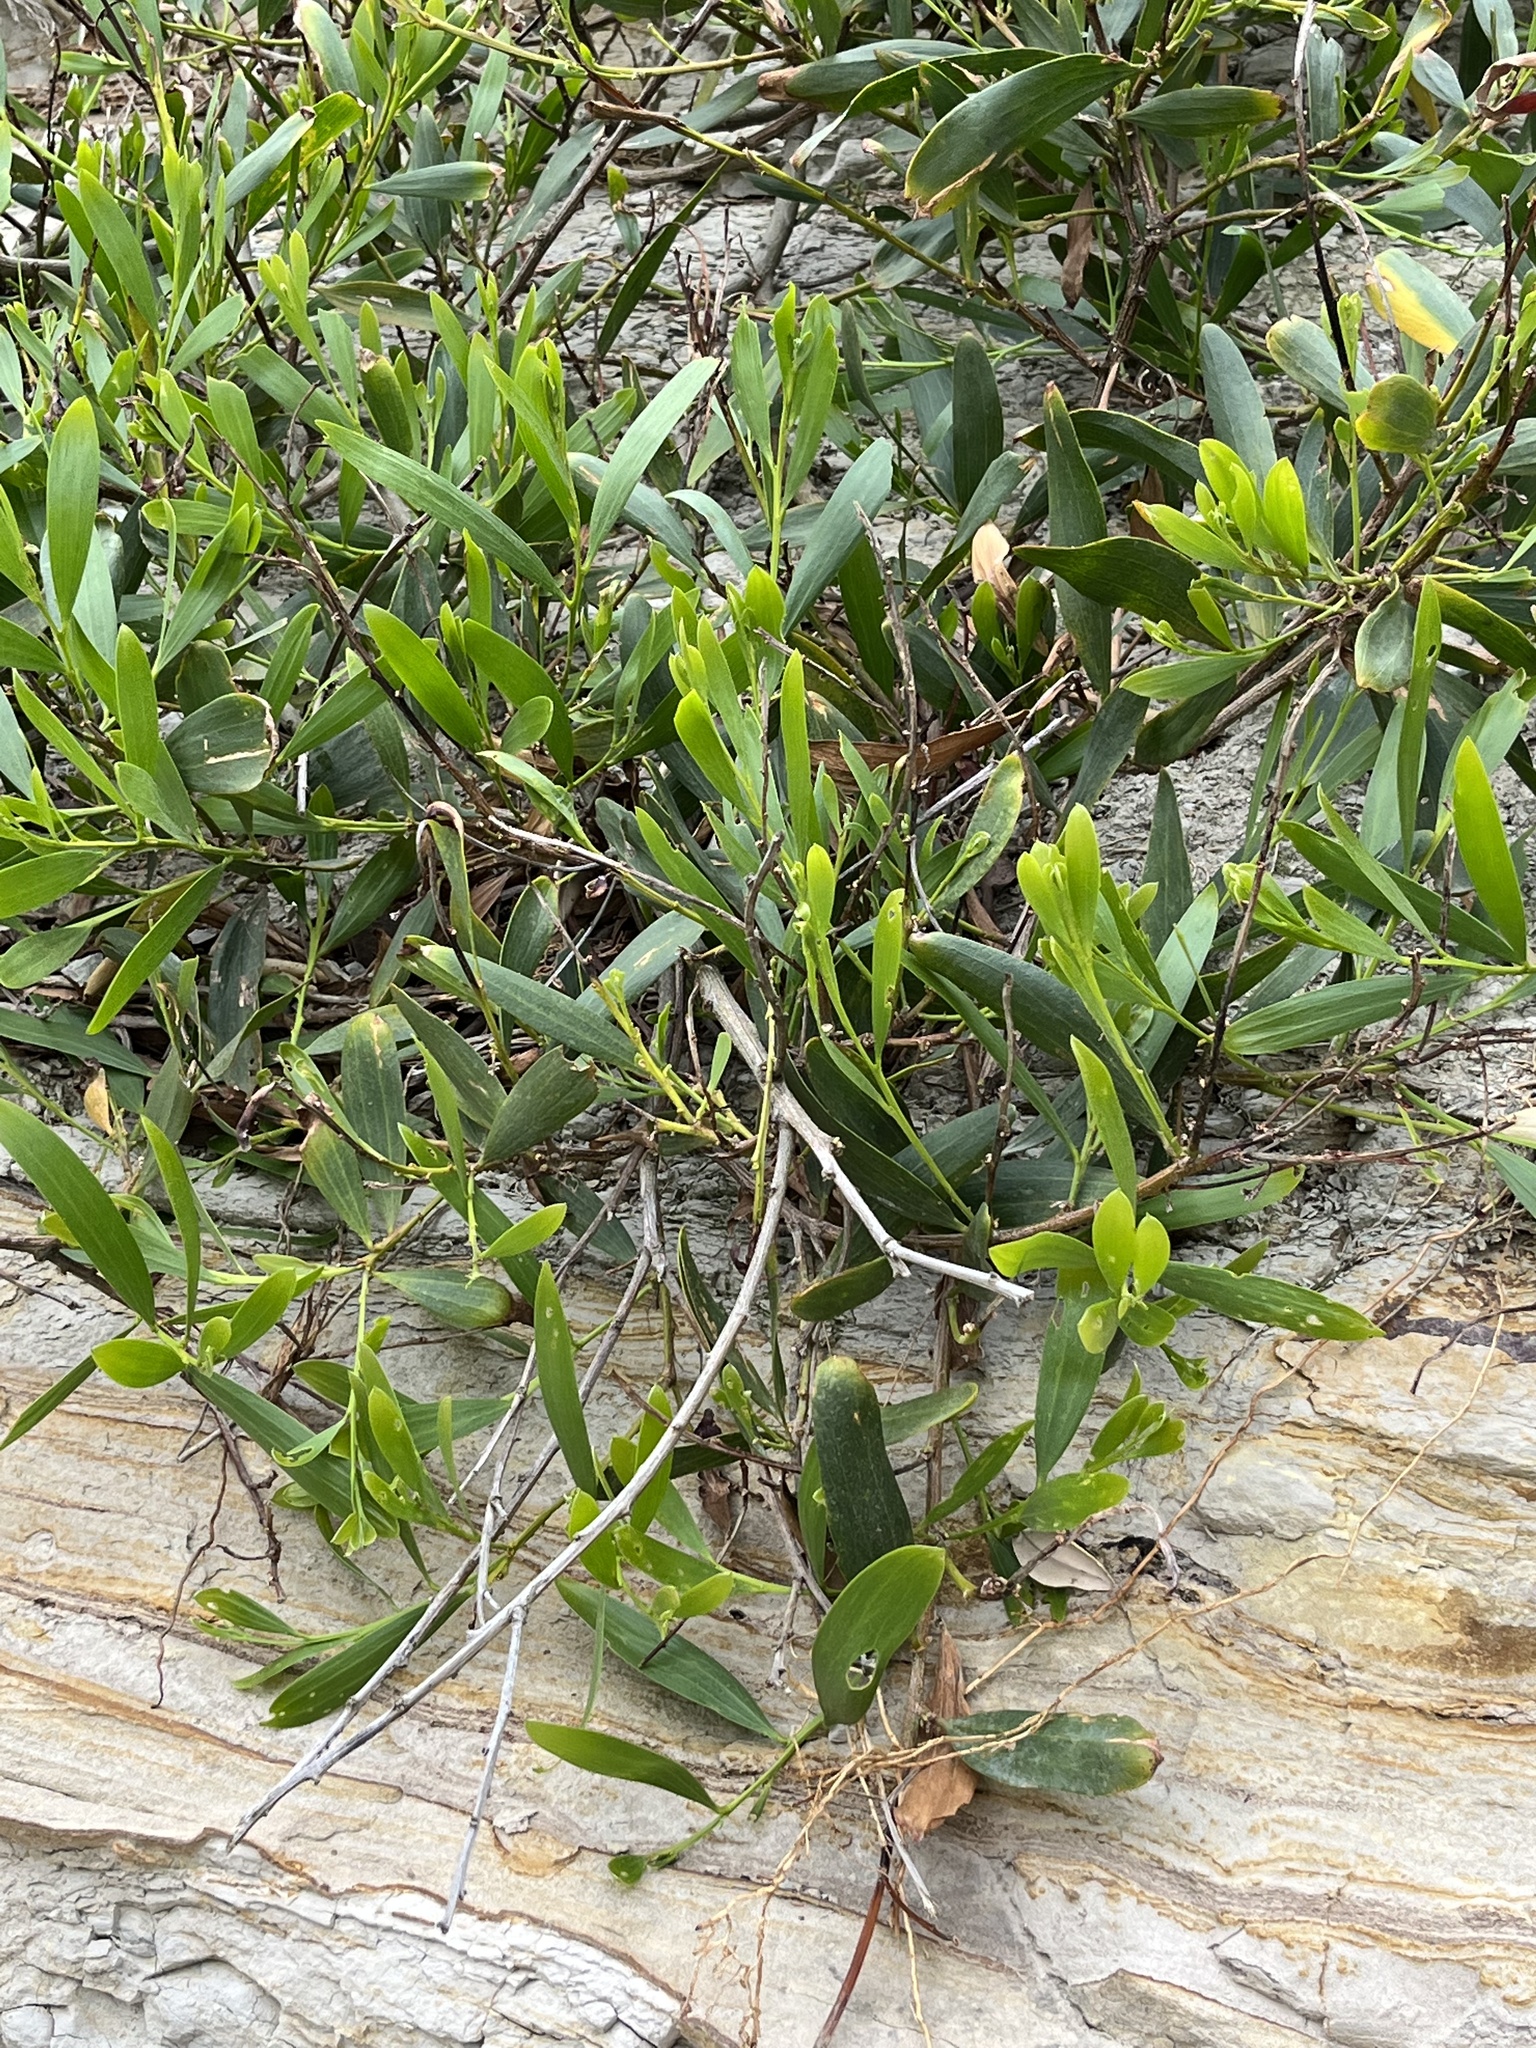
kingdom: Plantae
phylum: Tracheophyta
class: Magnoliopsida
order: Fabales
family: Fabaceae
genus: Acacia
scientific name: Acacia longifolia
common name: Sydney golden wattle
